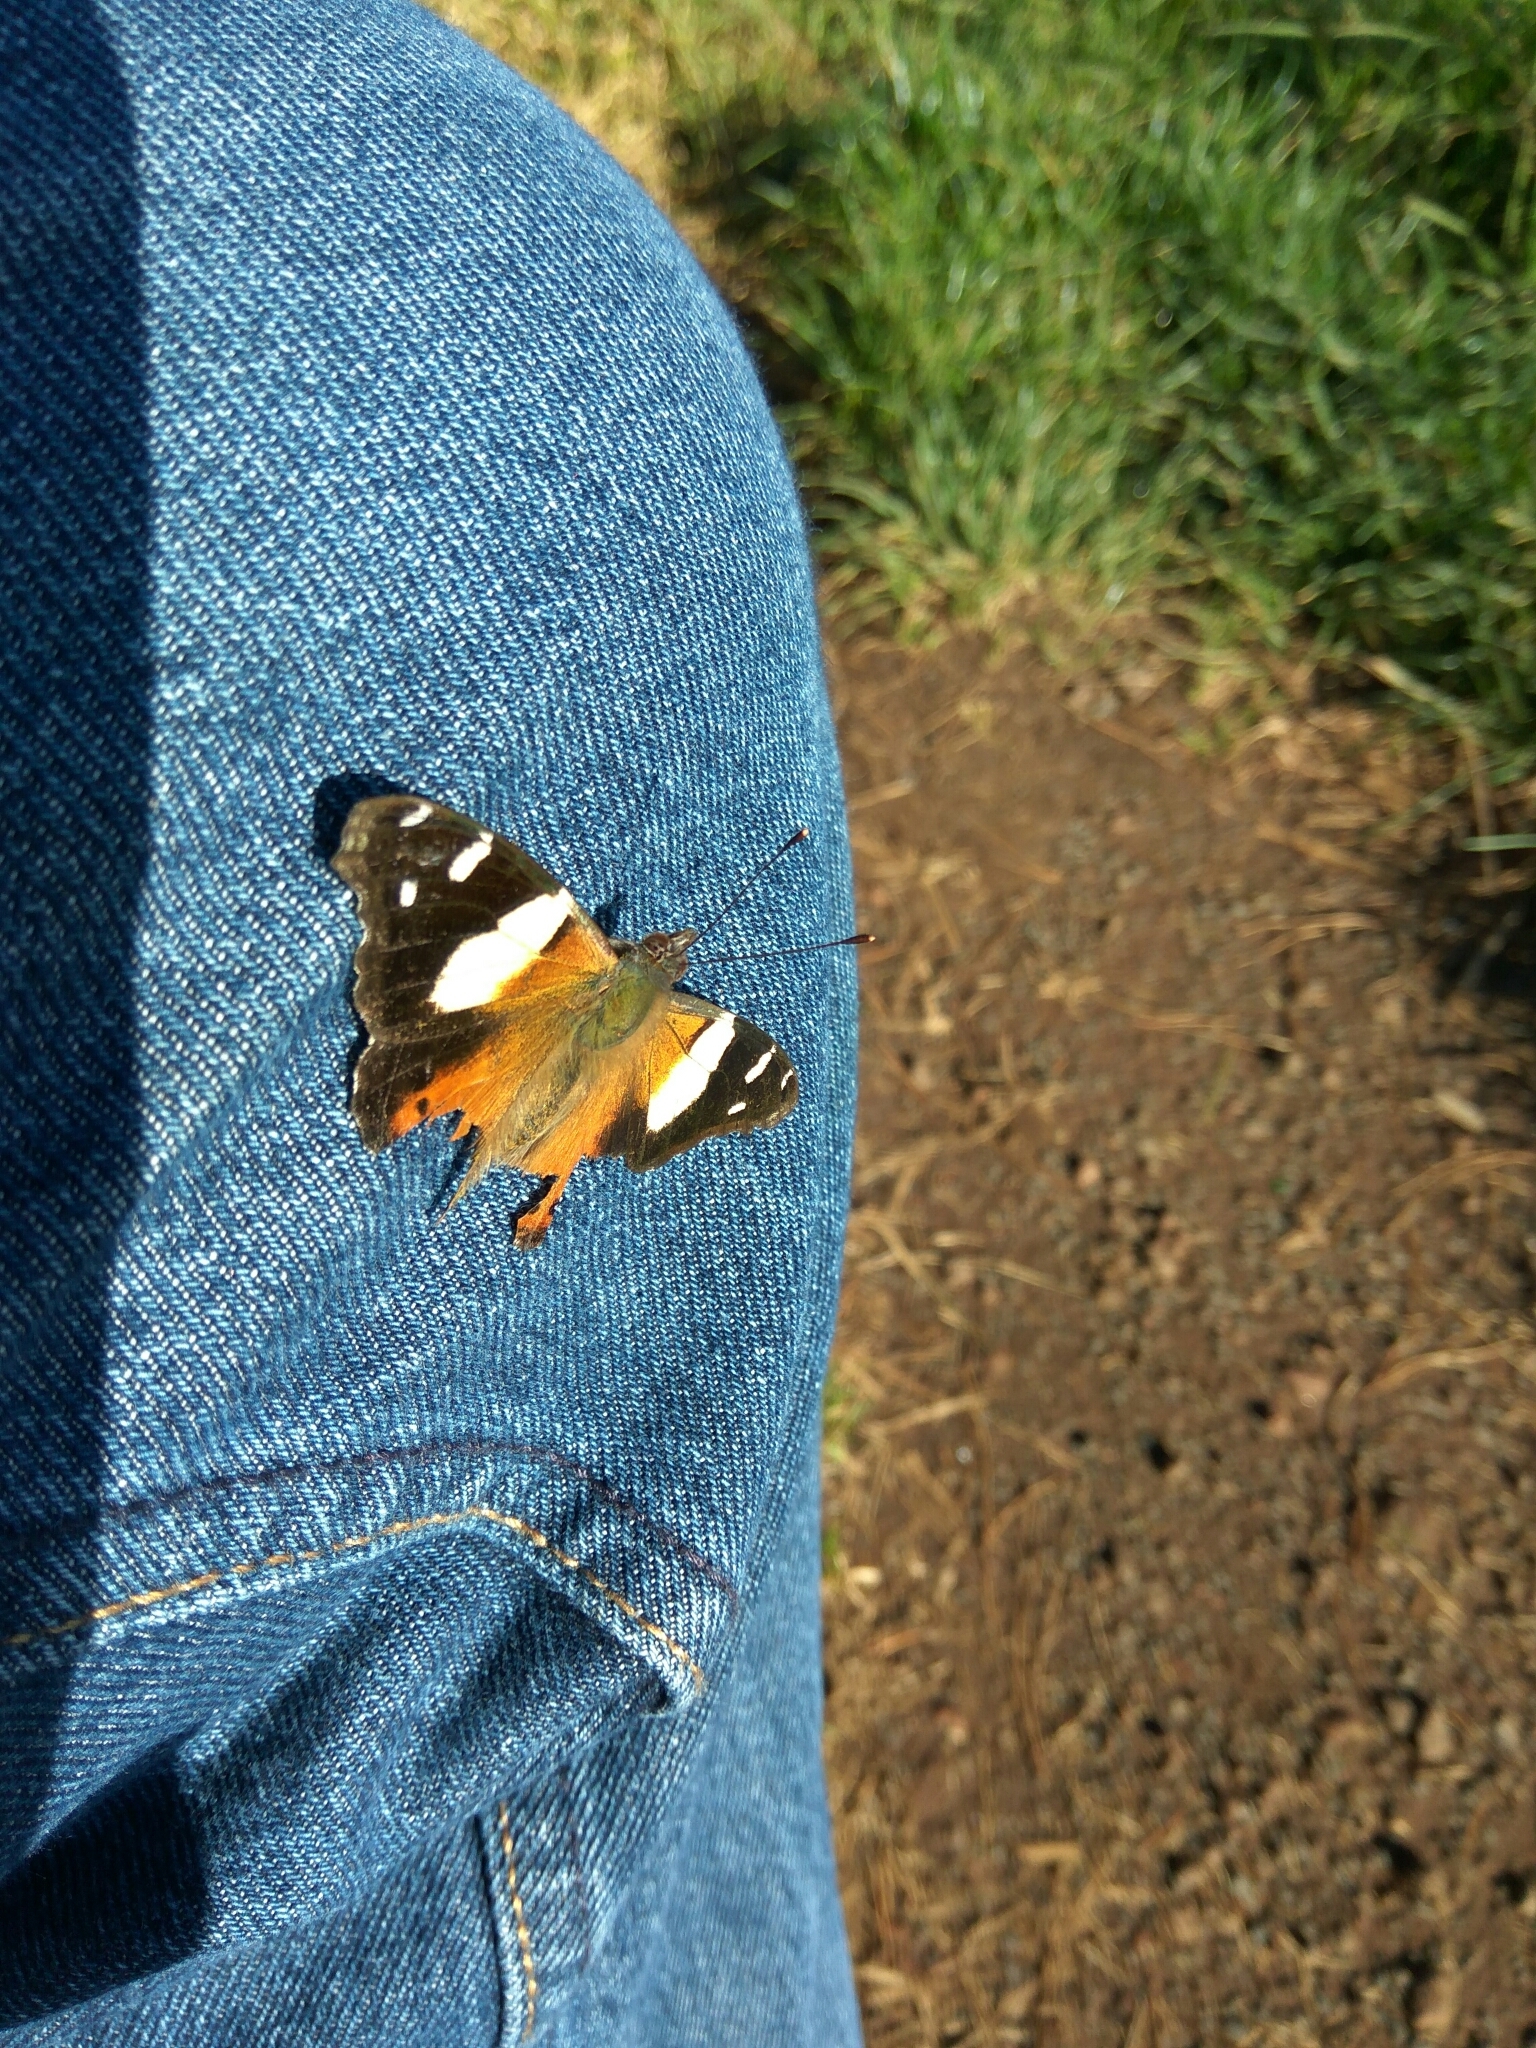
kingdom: Animalia
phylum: Arthropoda
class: Insecta
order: Lepidoptera
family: Nymphalidae
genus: Vanessa
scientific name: Vanessa itea
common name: Yellow admiral
